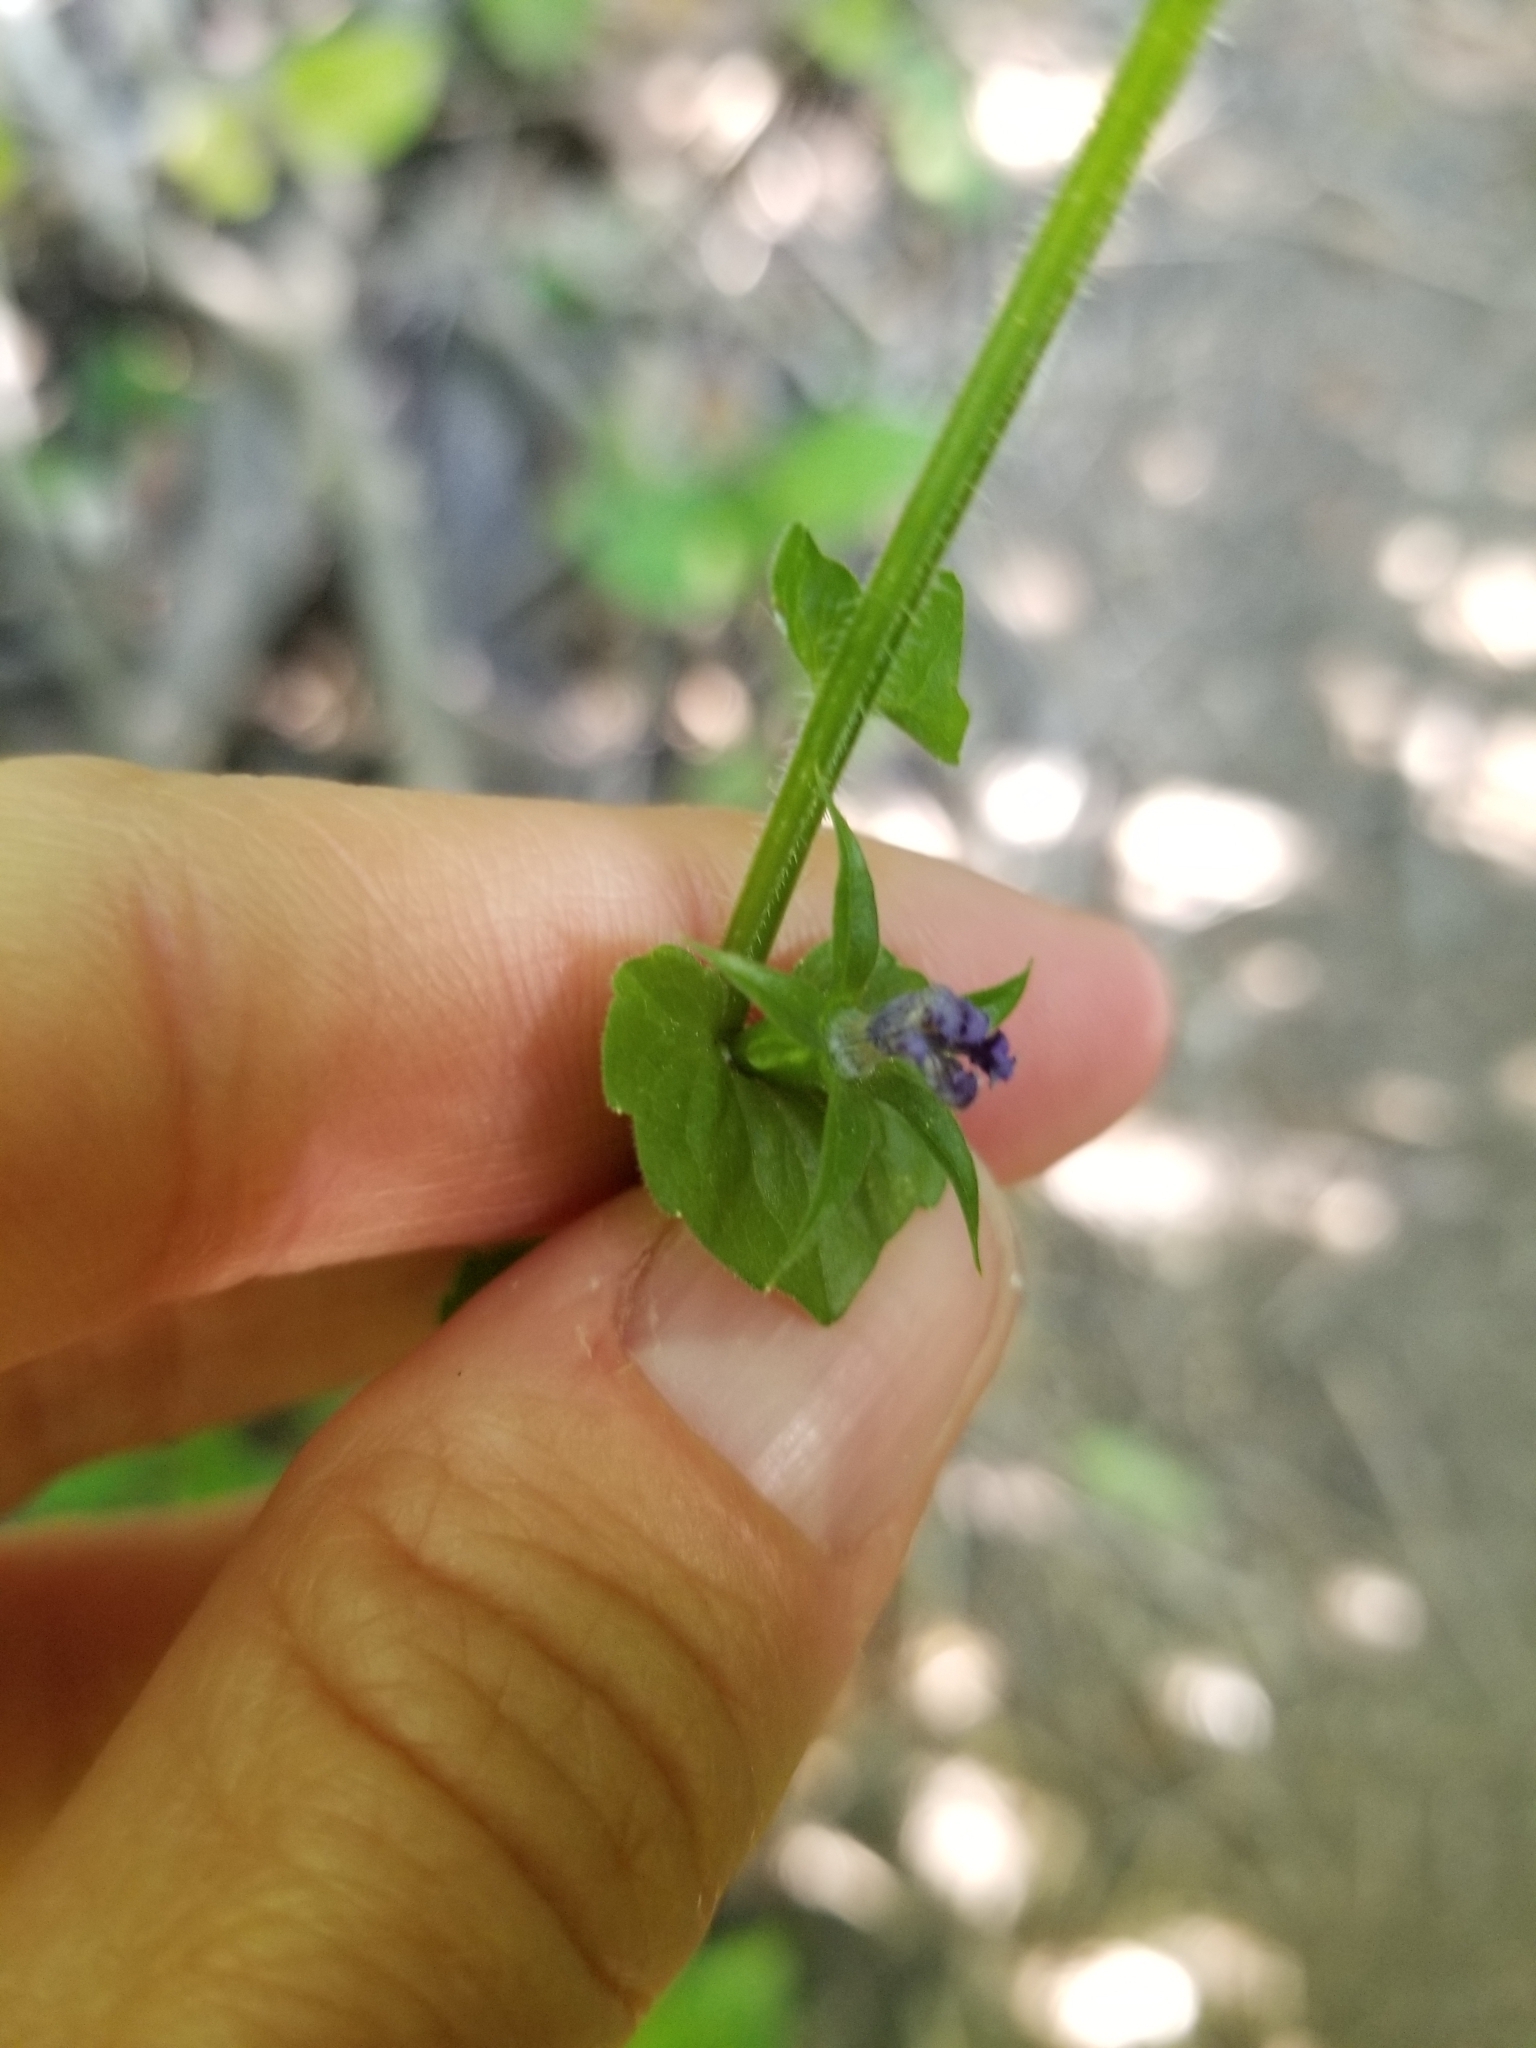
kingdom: Plantae
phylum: Tracheophyta
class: Magnoliopsida
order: Asterales
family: Campanulaceae
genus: Triodanis
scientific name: Triodanis perfoliata
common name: Clasping venus' looking-glass
